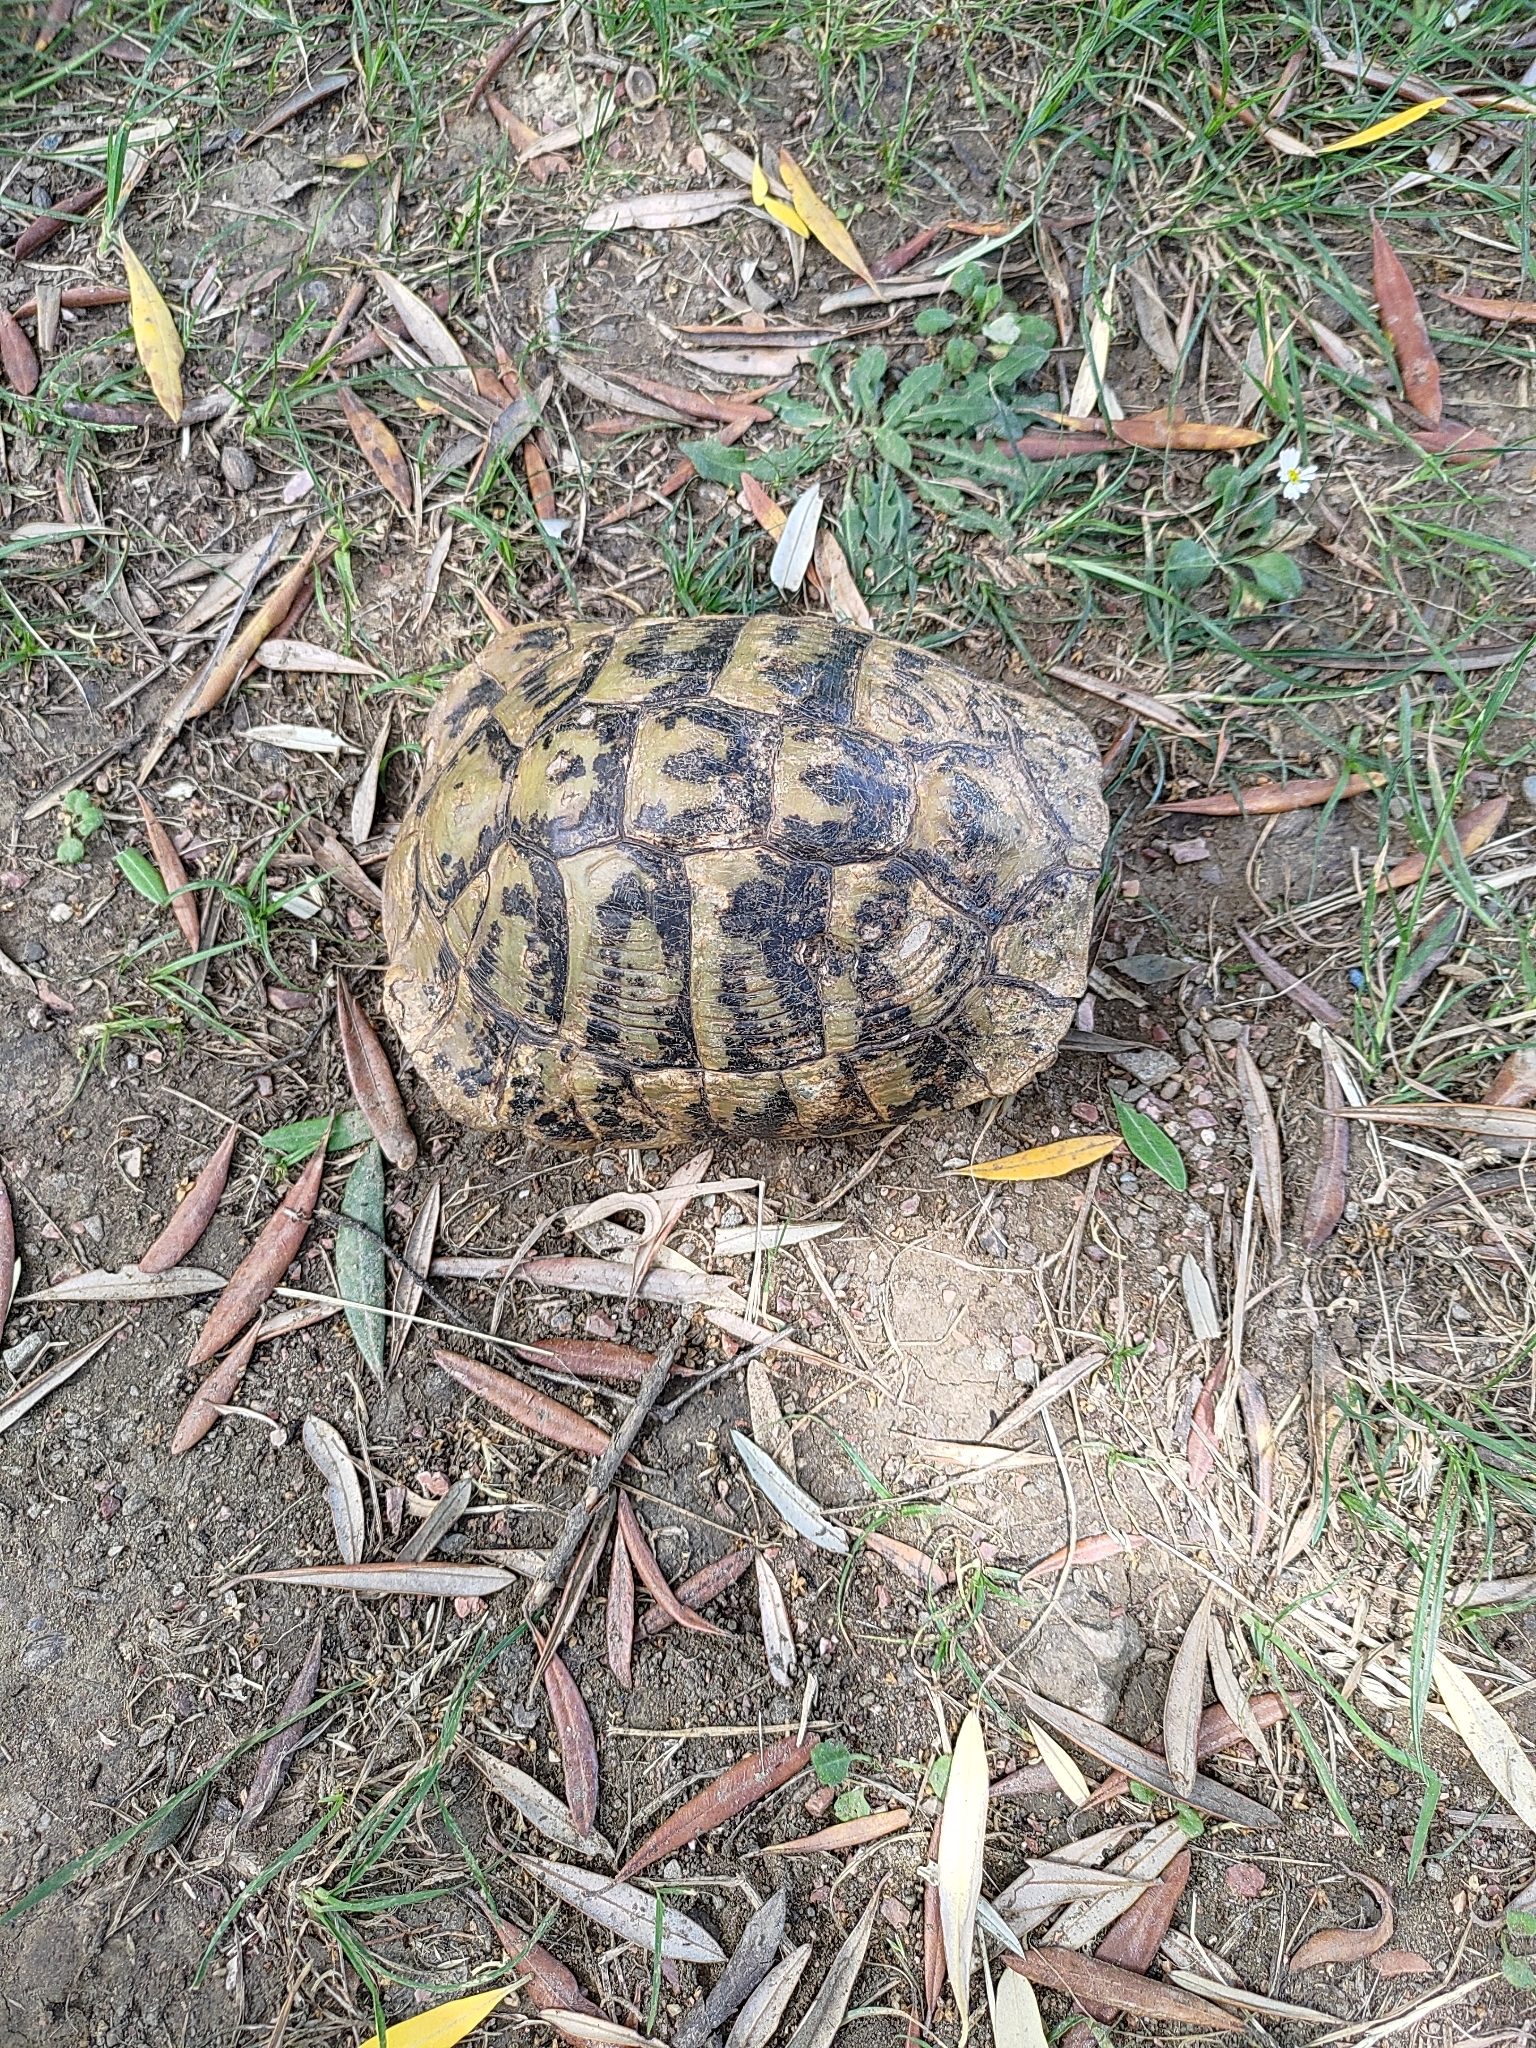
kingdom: Animalia
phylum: Chordata
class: Testudines
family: Testudinidae
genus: Testudo
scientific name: Testudo hermanni
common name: Hermann's tortoise
